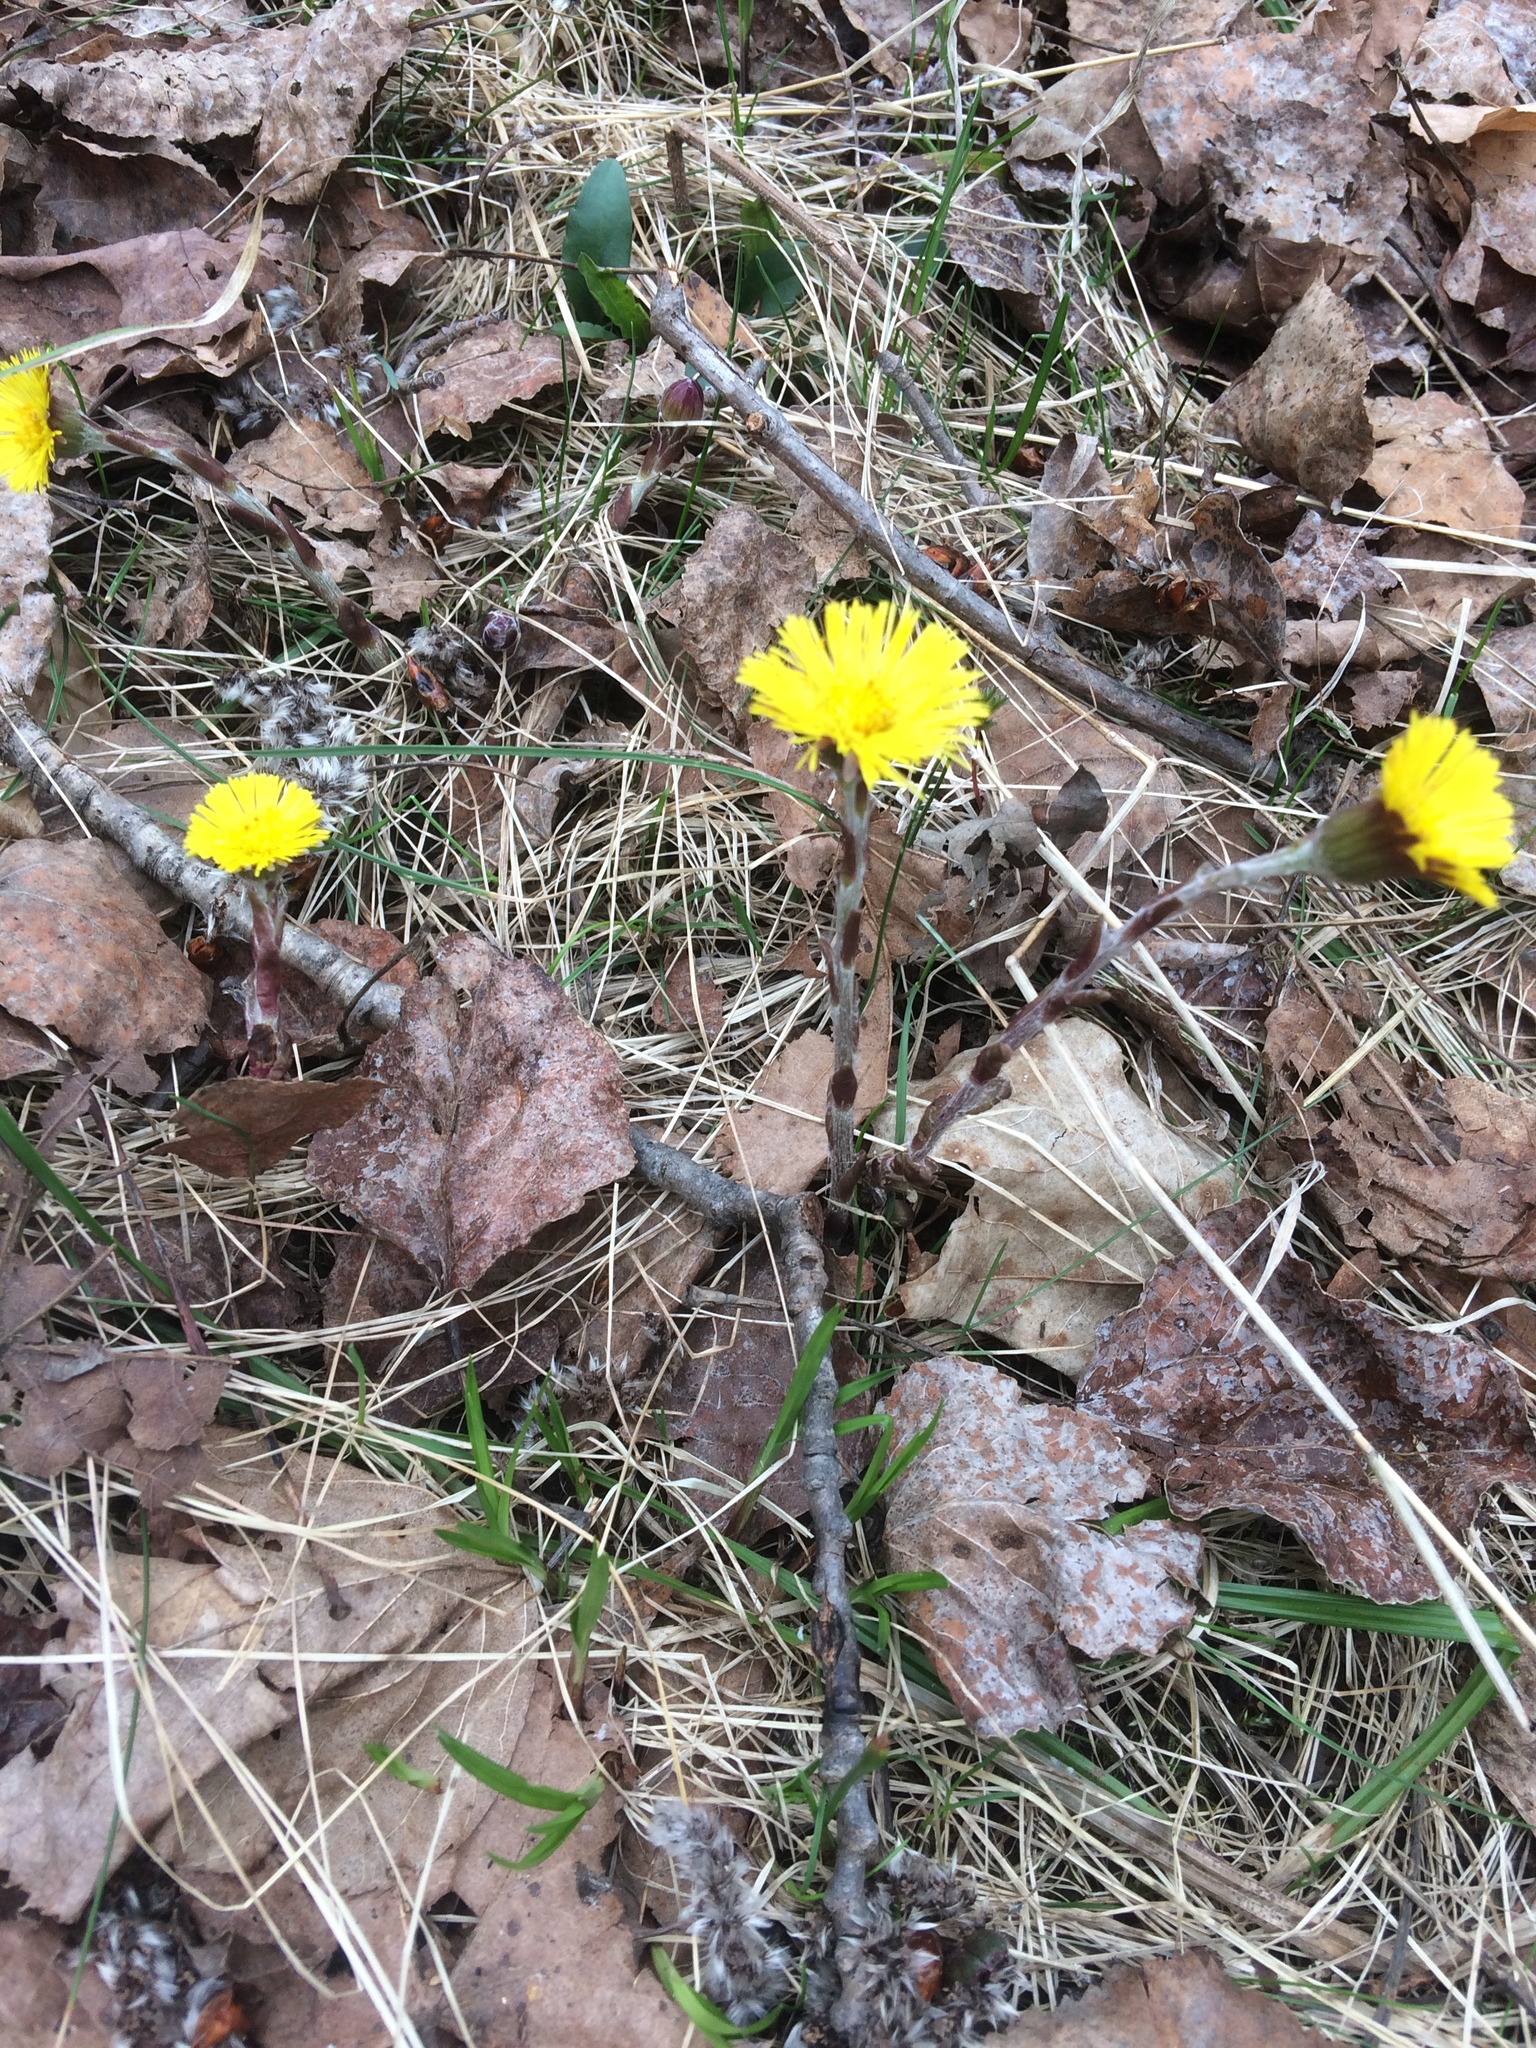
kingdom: Plantae
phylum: Tracheophyta
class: Magnoliopsida
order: Asterales
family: Asteraceae
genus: Tussilago
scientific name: Tussilago farfara
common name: Coltsfoot
